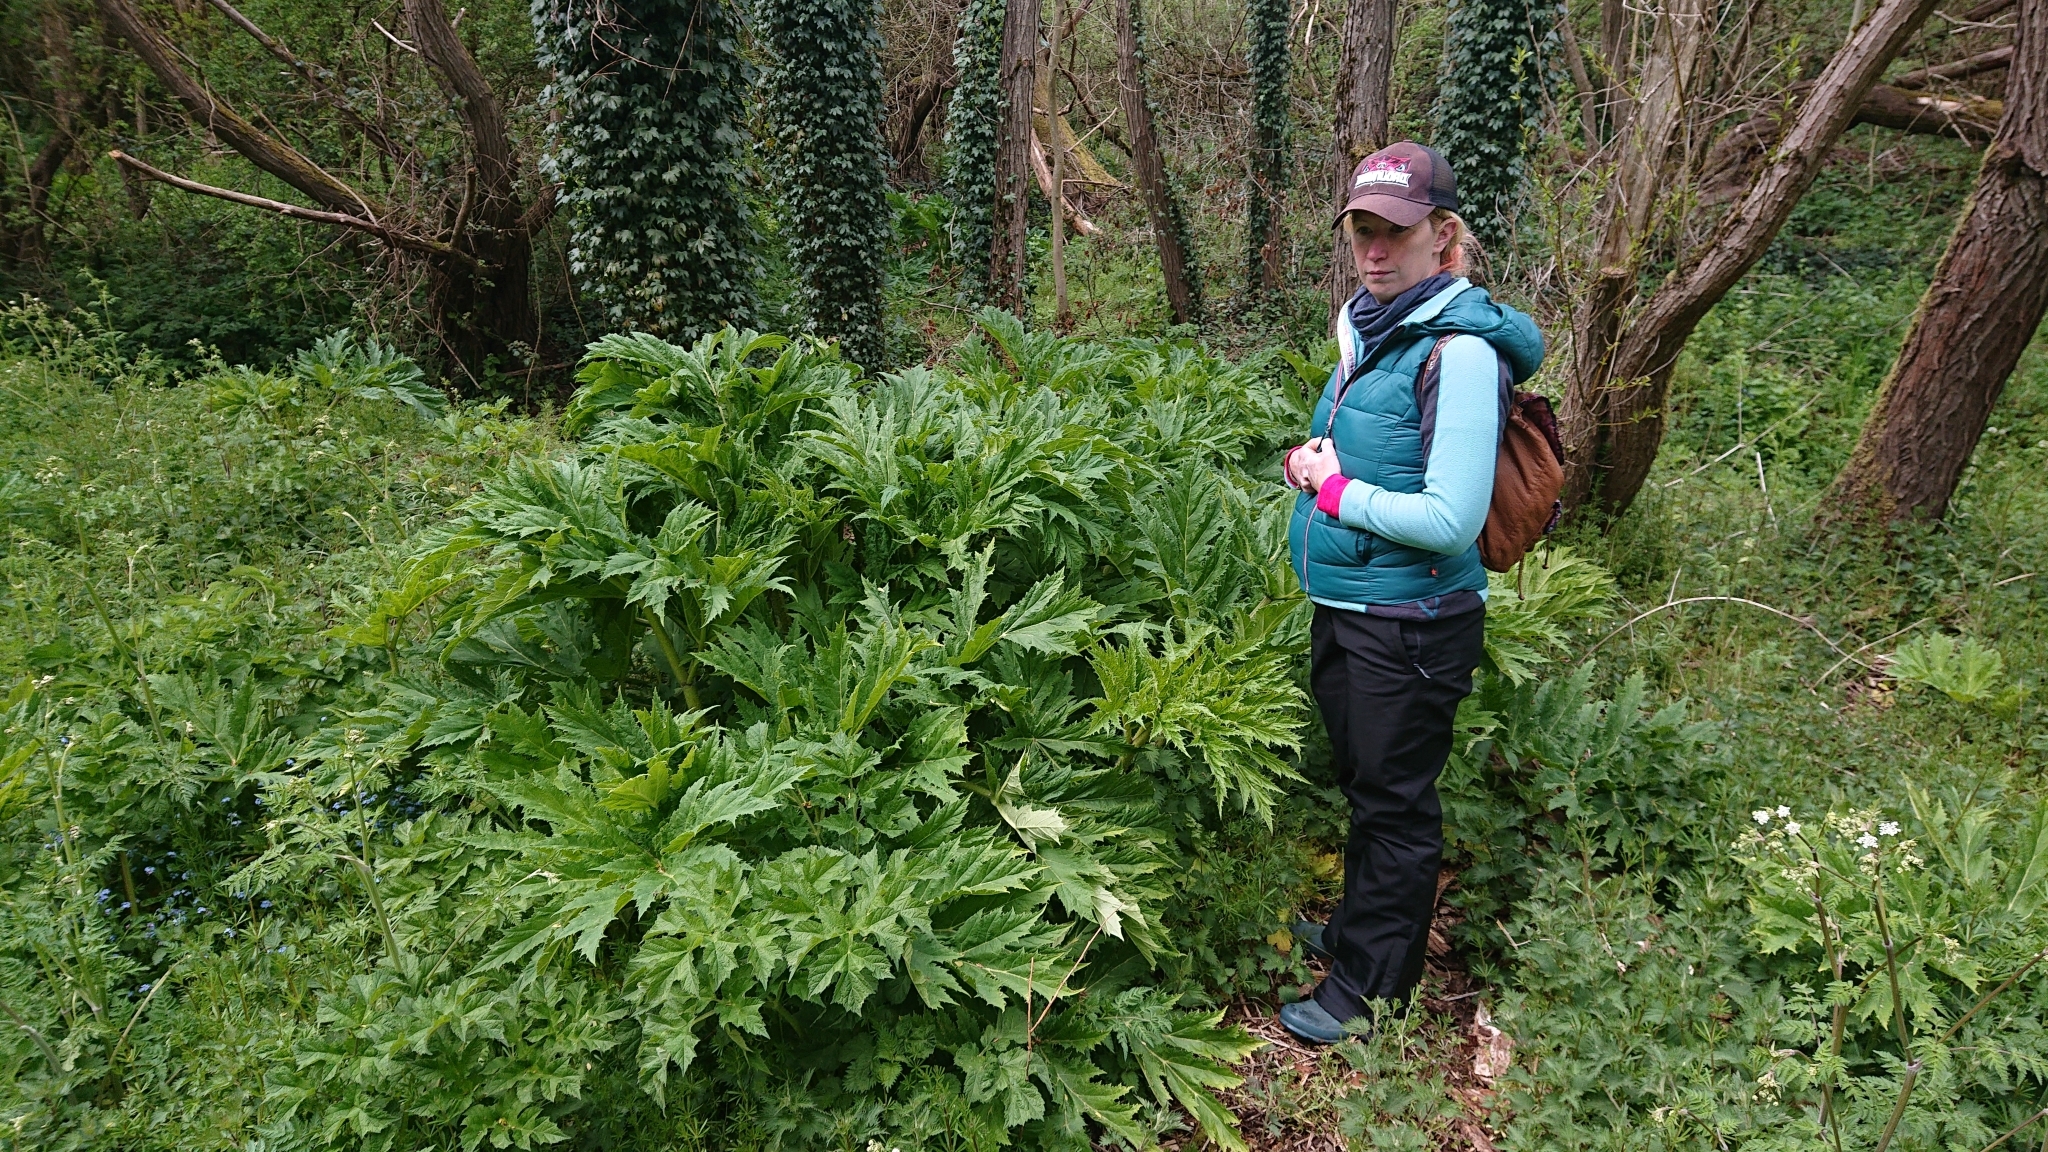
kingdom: Plantae
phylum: Tracheophyta
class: Magnoliopsida
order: Apiales
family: Apiaceae
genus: Heracleum
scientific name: Heracleum mantegazzianum
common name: Giant hogweed
